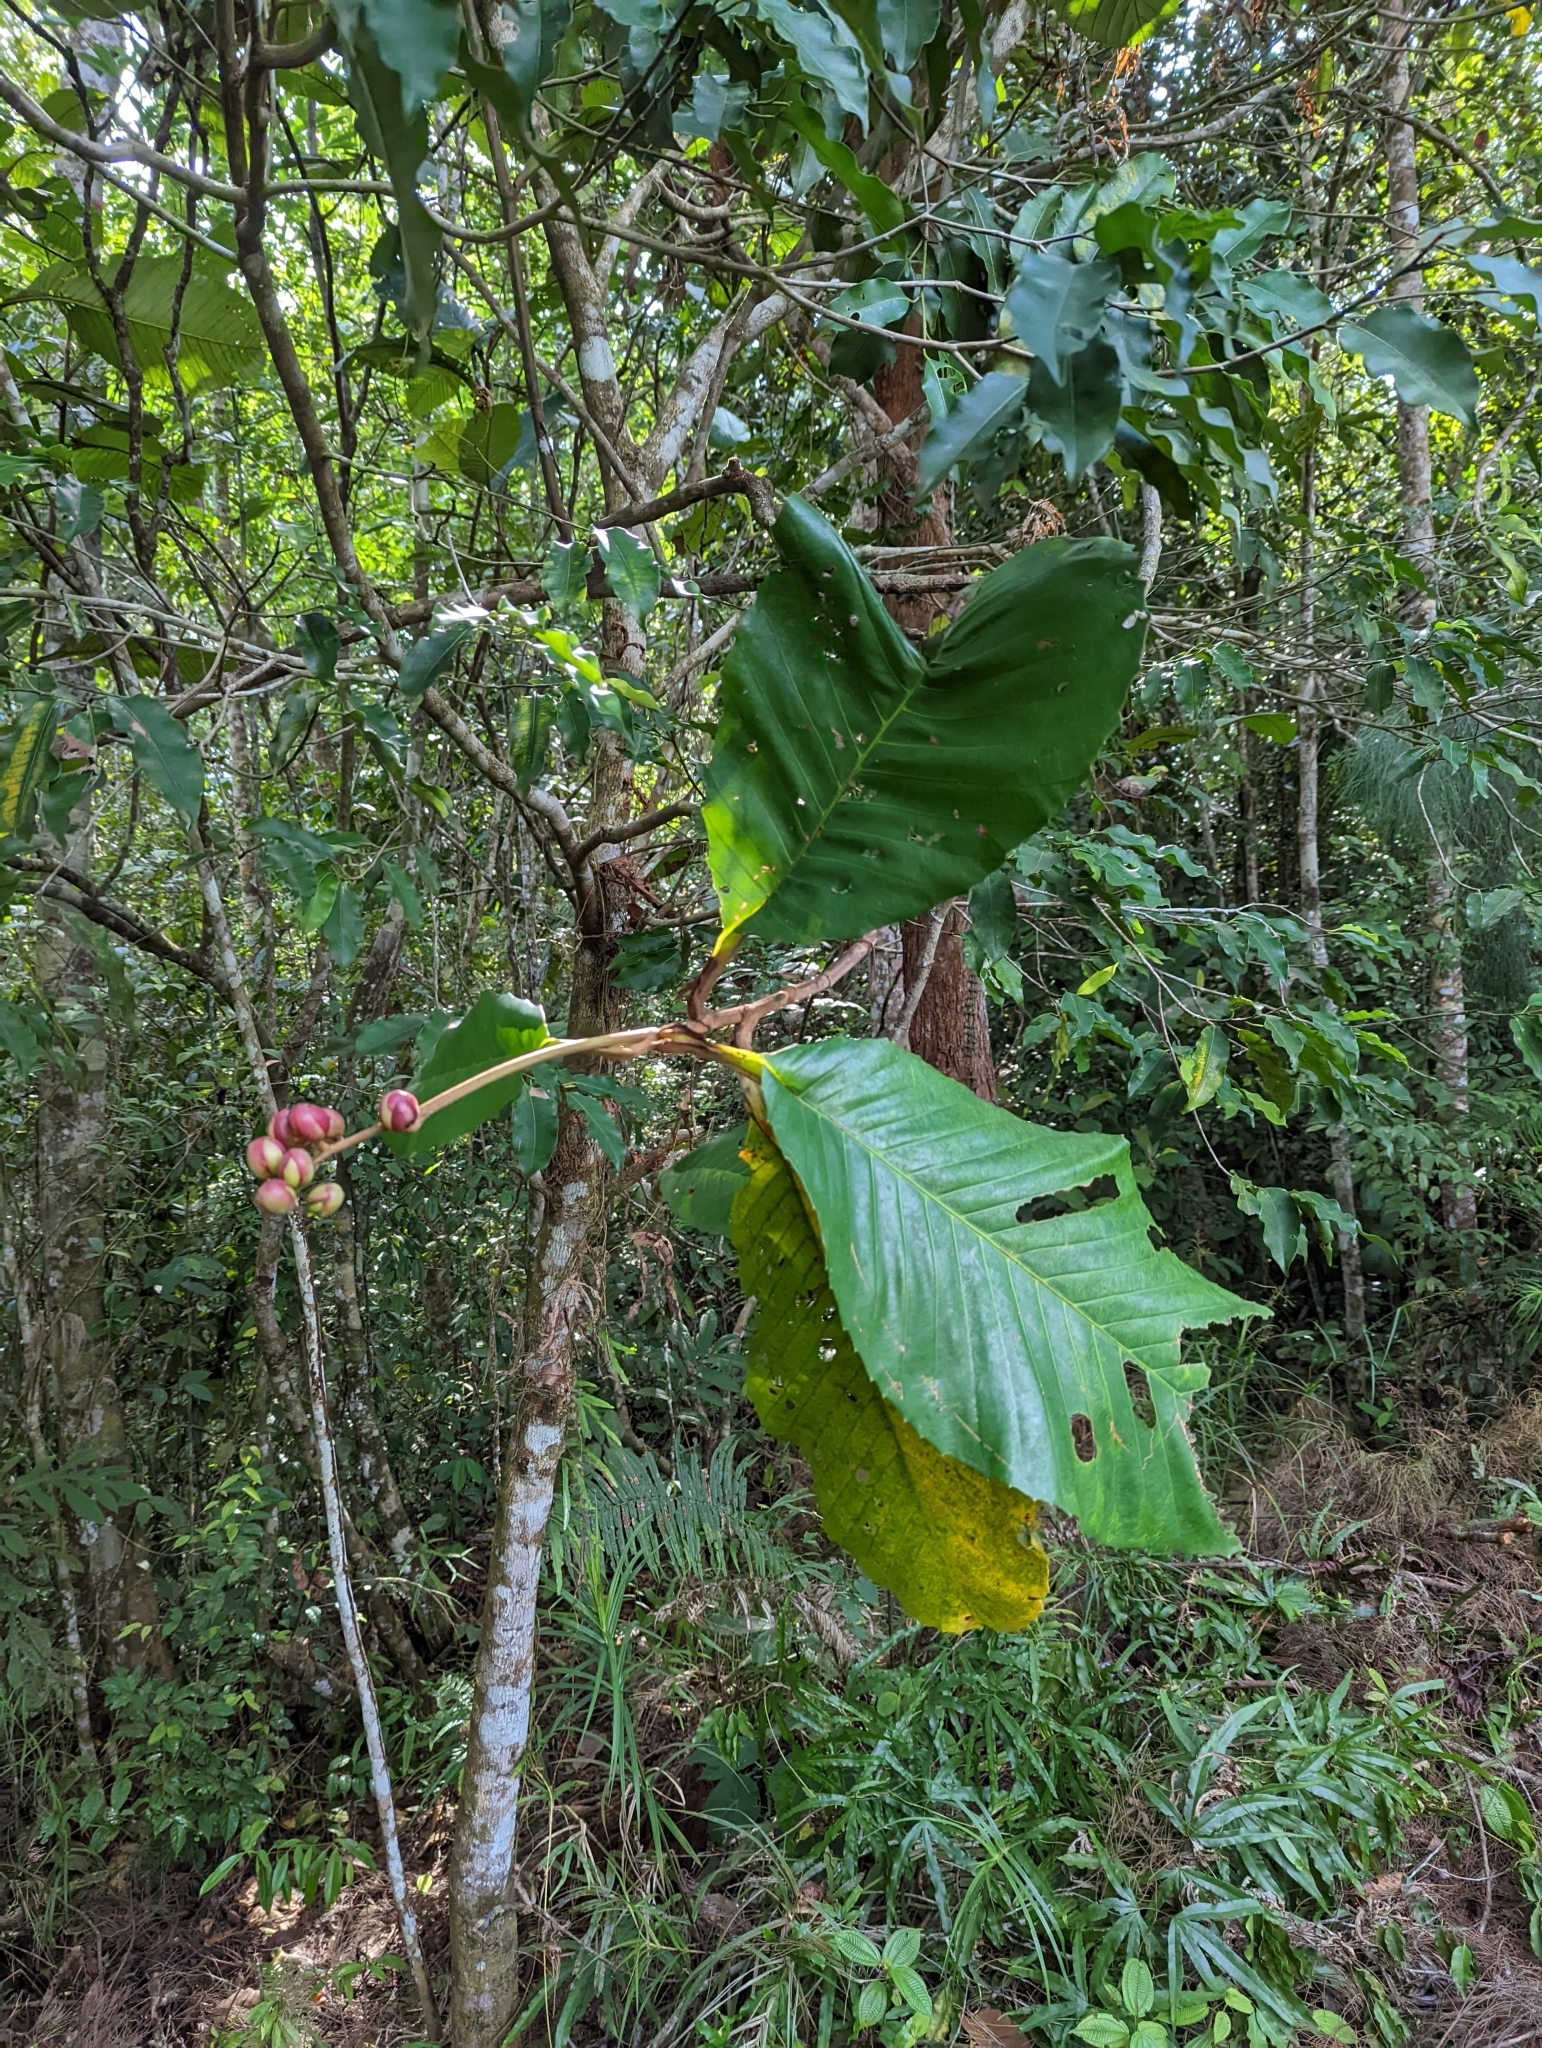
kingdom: Plantae
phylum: Tracheophyta
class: Magnoliopsida
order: Dilleniales
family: Dilleniaceae
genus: Dillenia
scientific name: Dillenia suffruticosa
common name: Shrubby dillenia
